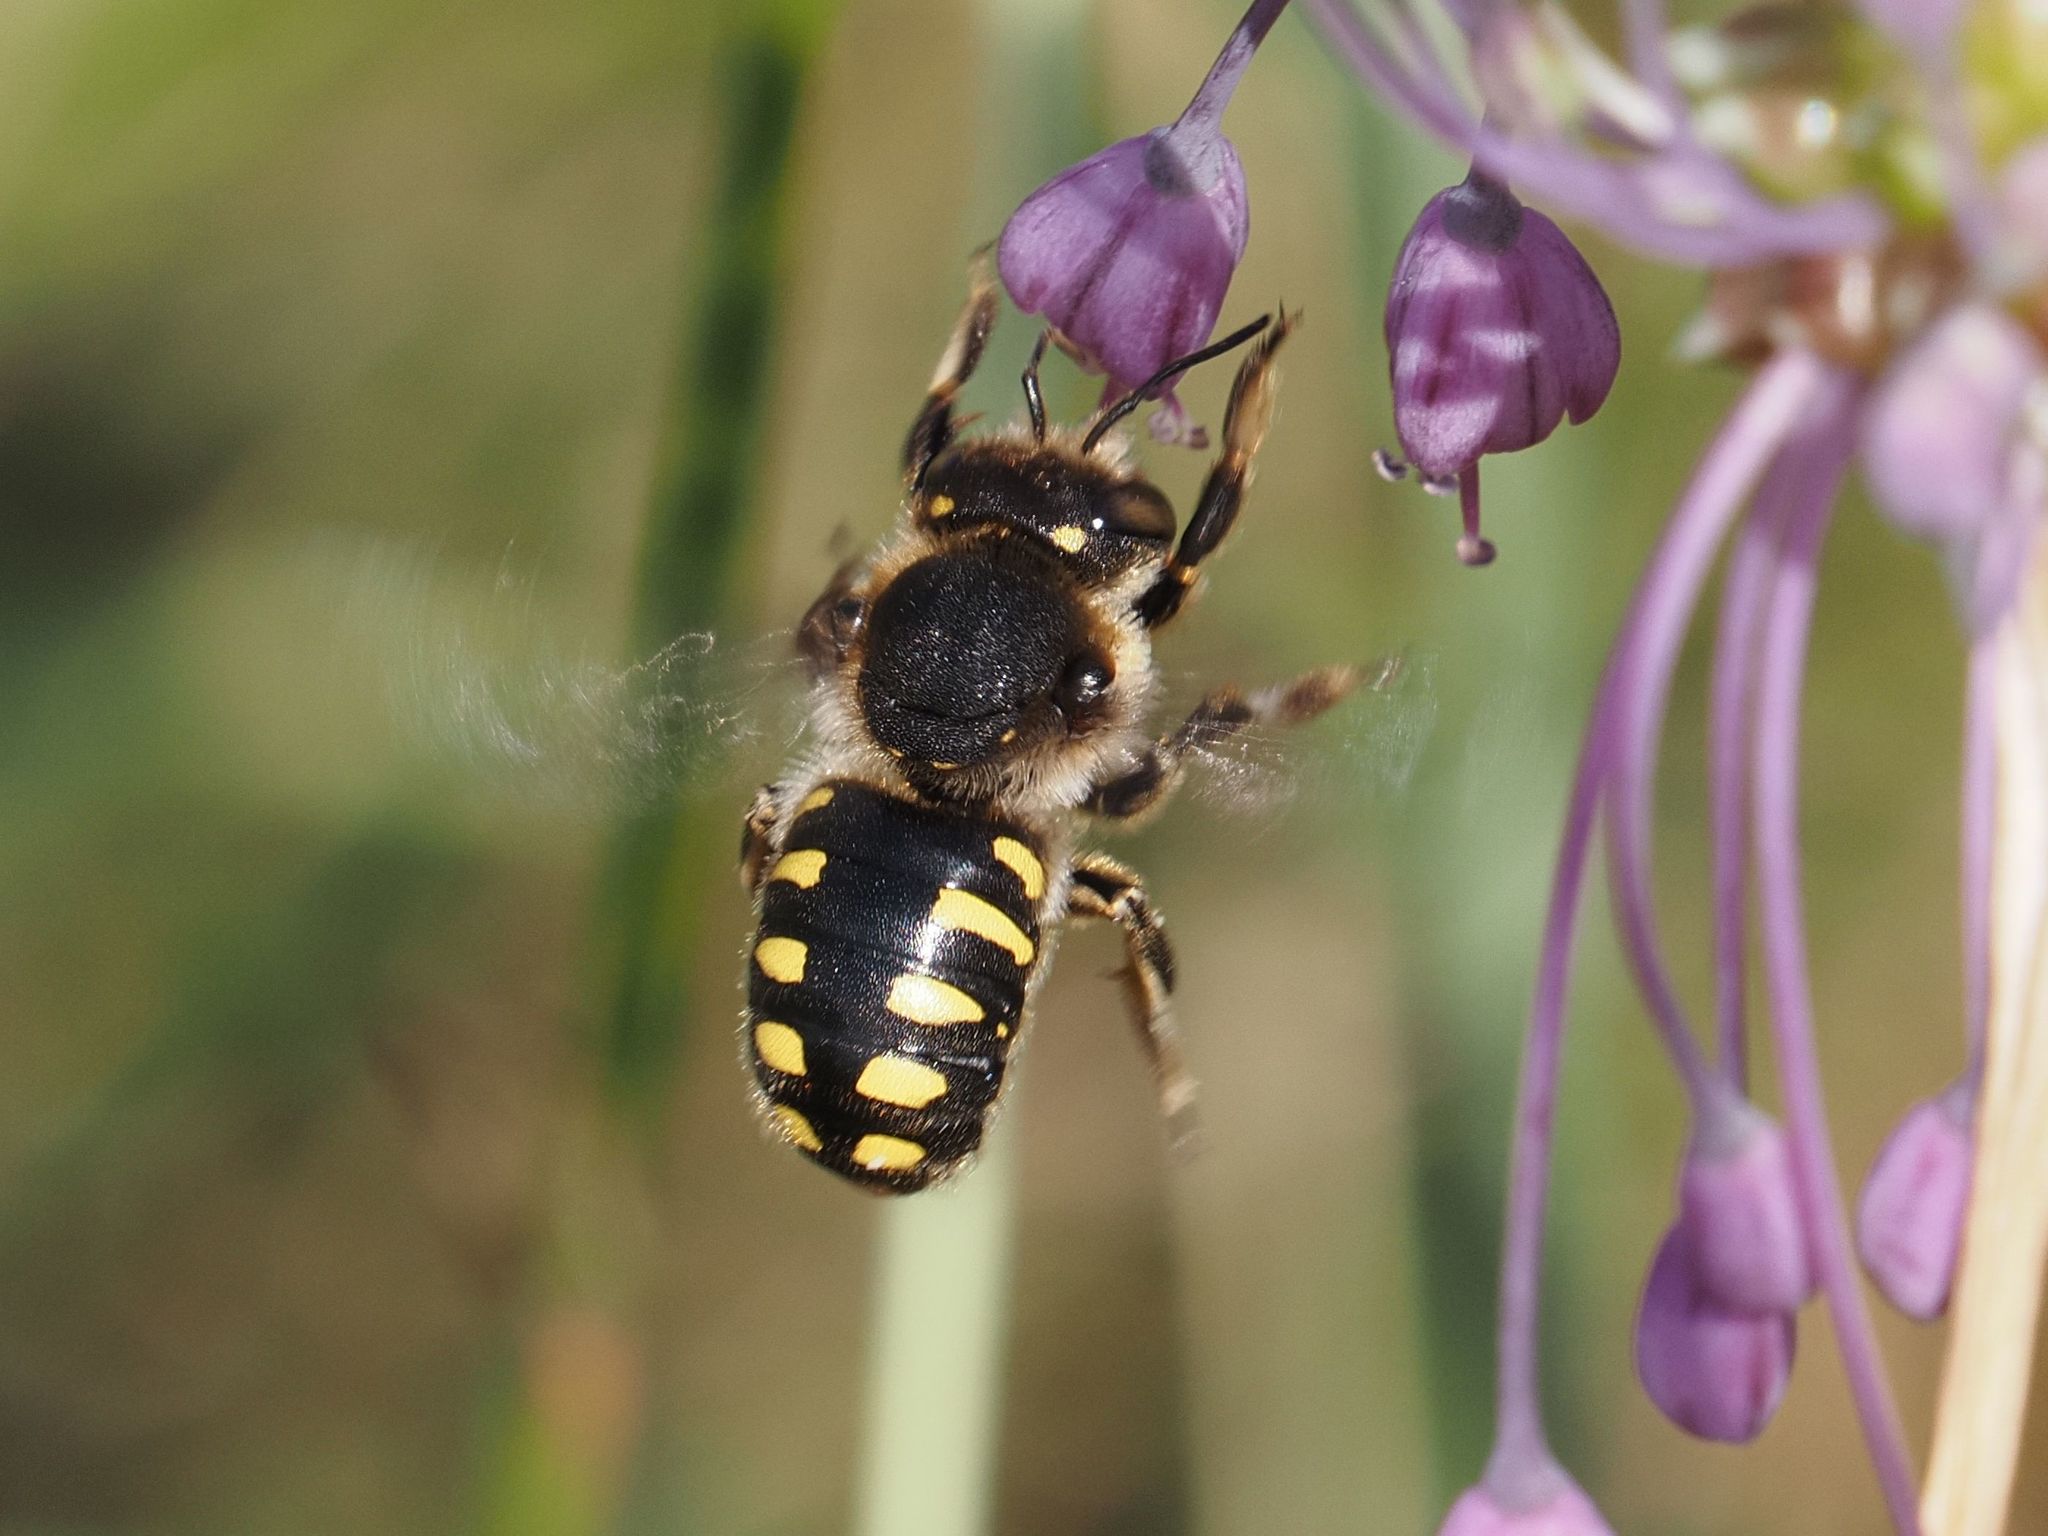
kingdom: Animalia
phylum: Arthropoda
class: Insecta
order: Hymenoptera
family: Megachilidae
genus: Anthidium
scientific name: Anthidium septemspinosum
